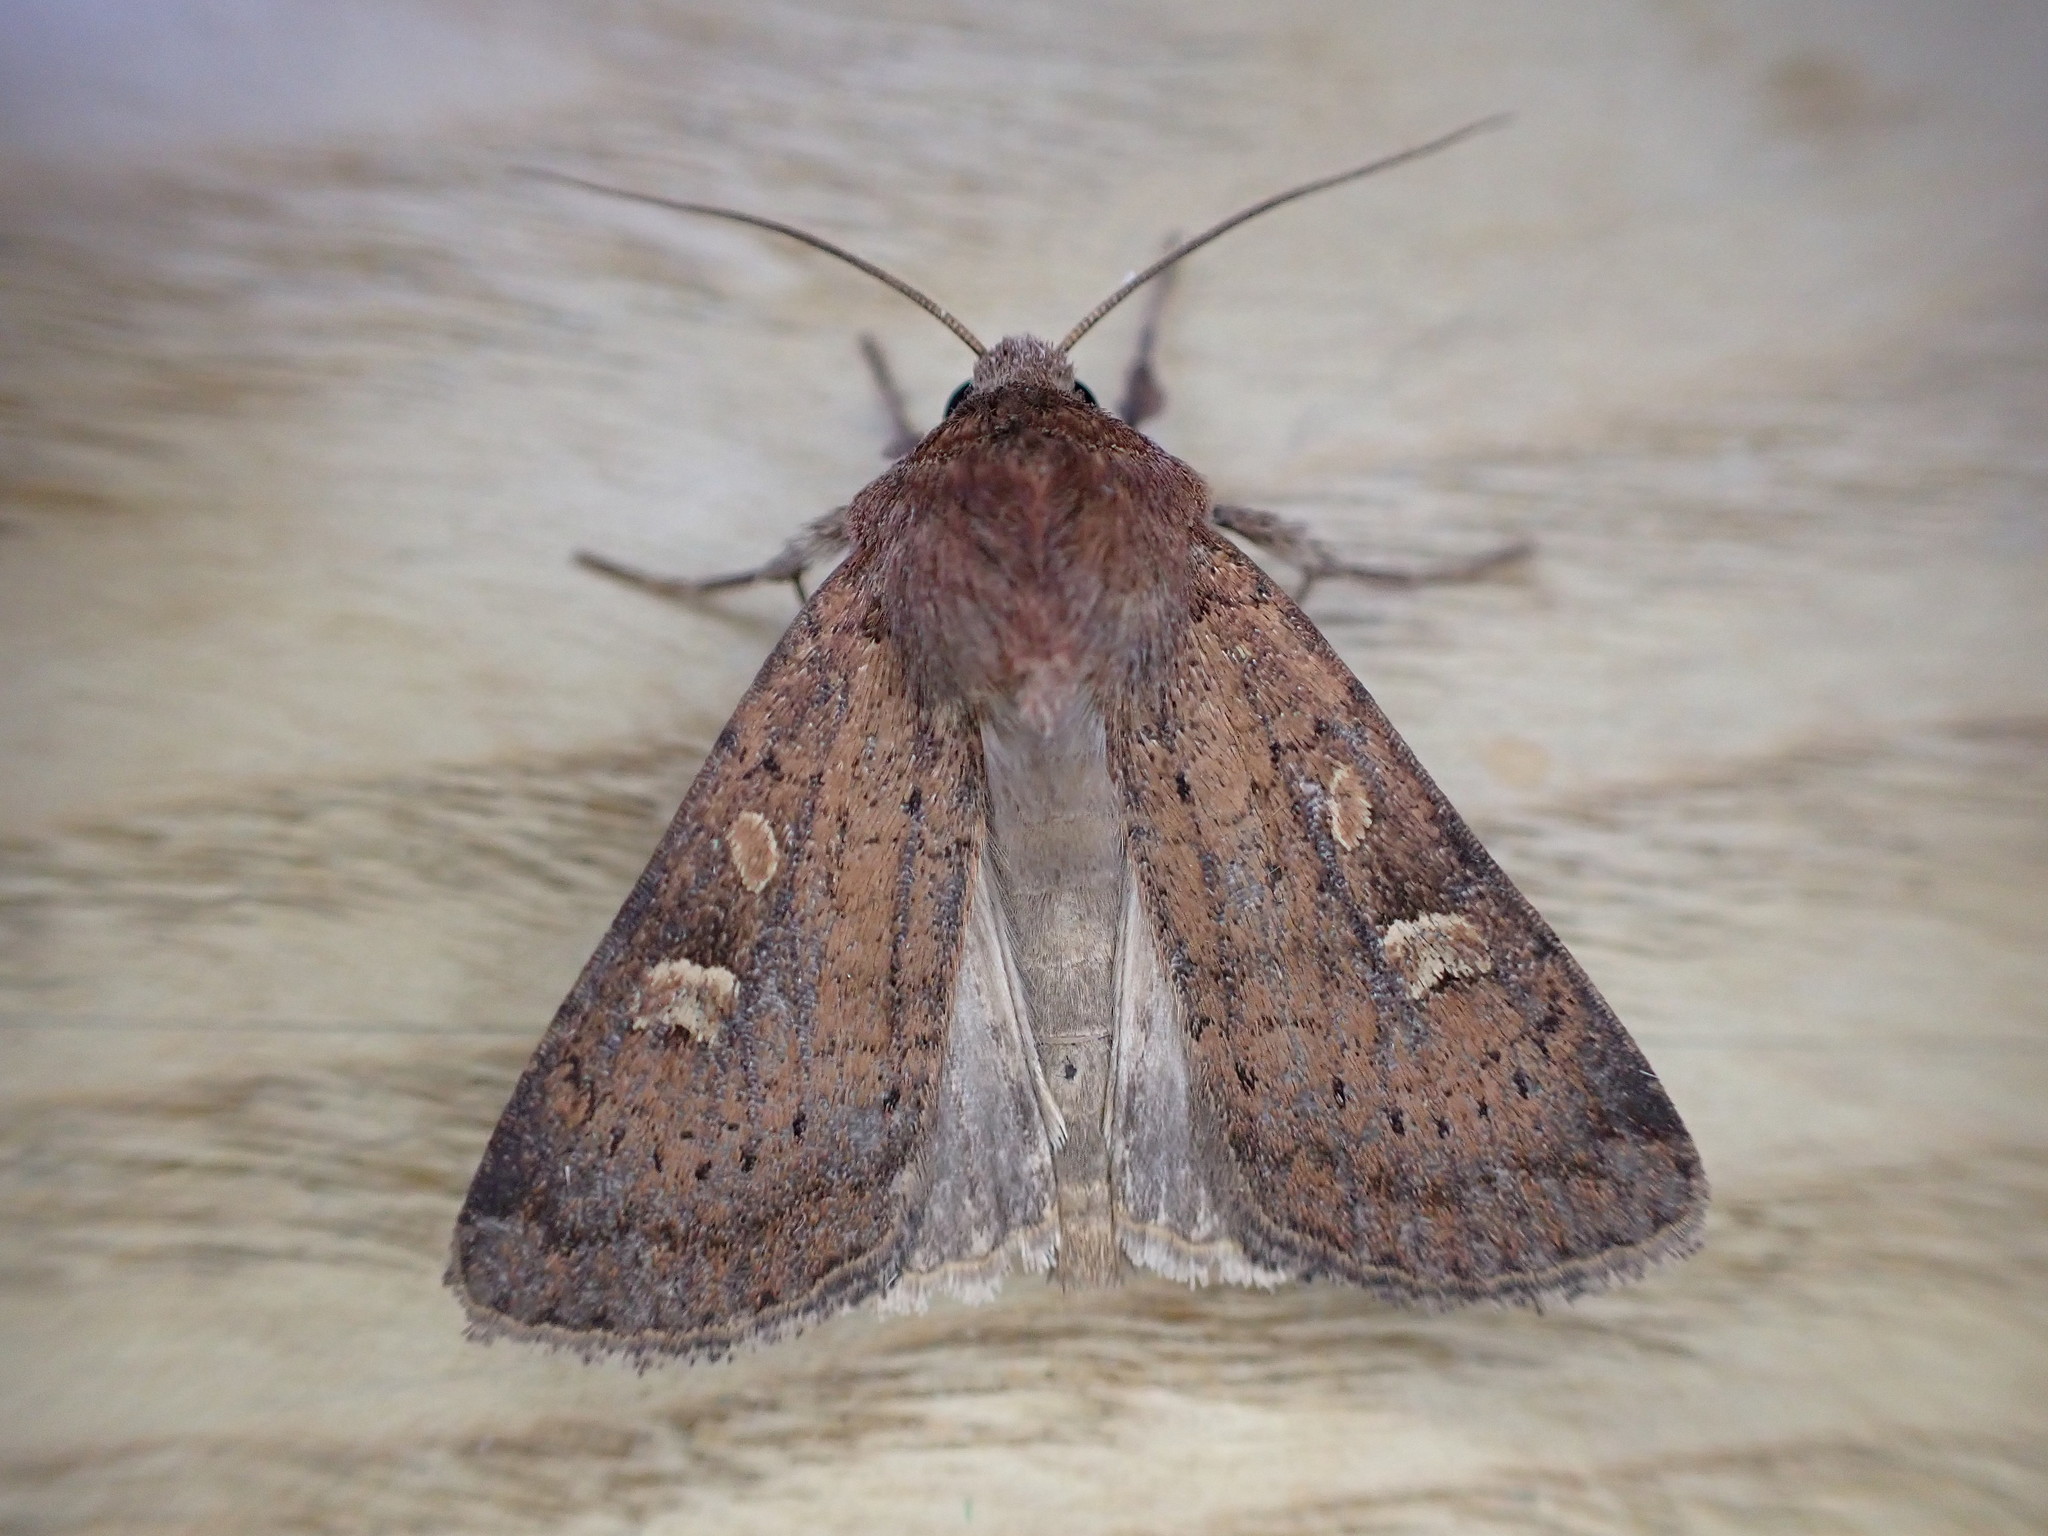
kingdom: Animalia
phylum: Arthropoda
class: Insecta
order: Lepidoptera
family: Noctuidae
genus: Xestia
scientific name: Xestia xanthographa
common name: Square-spot rustic
